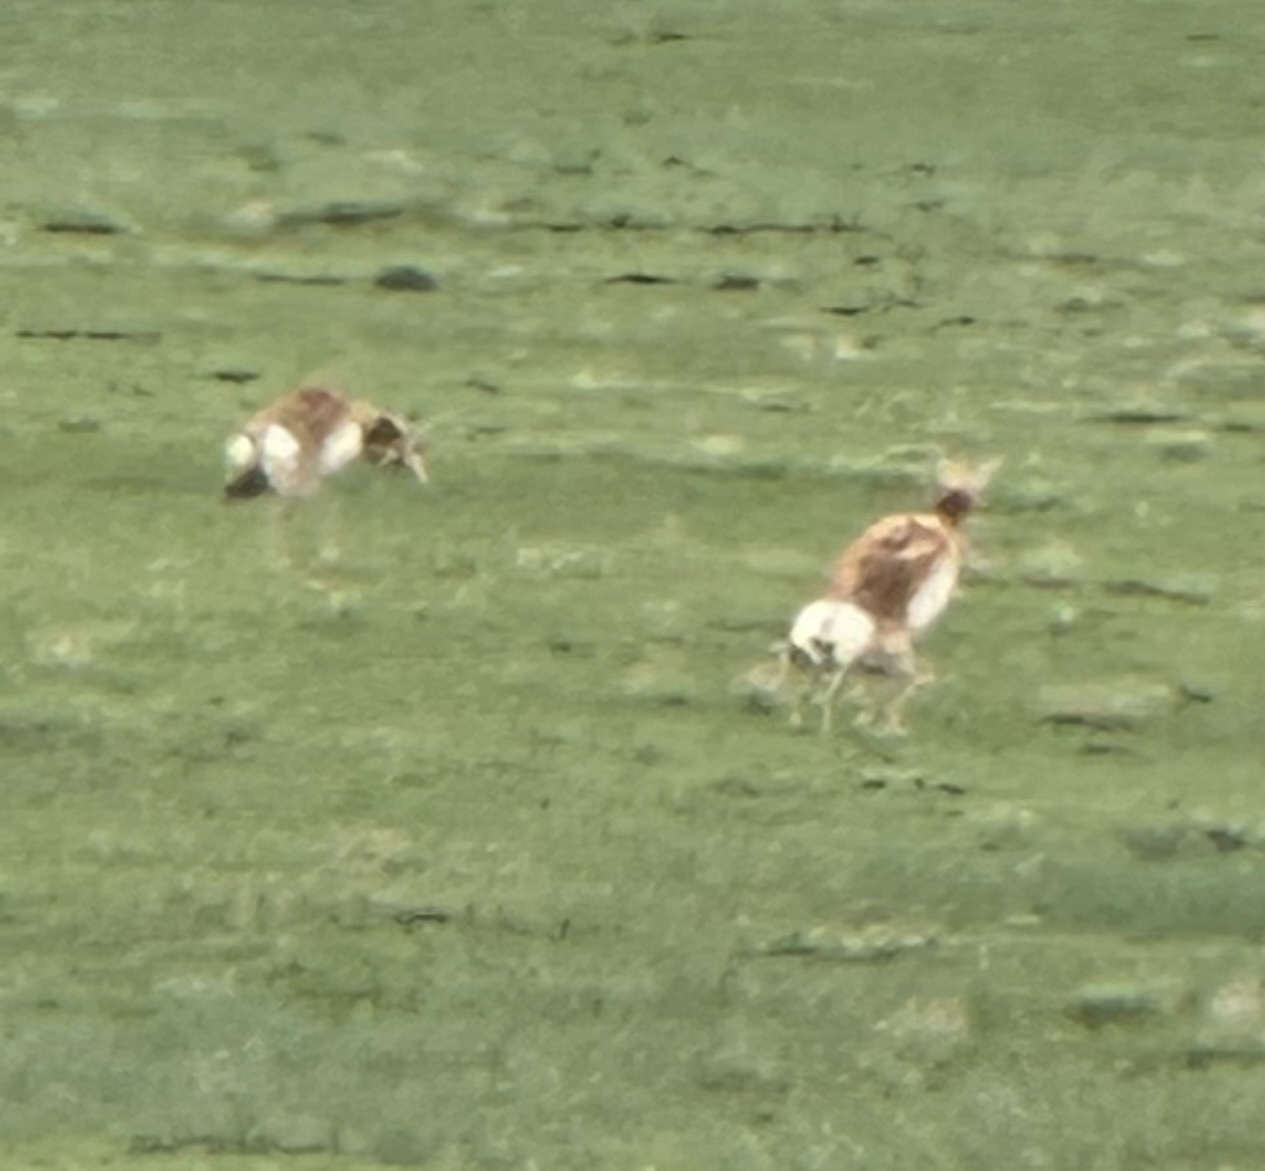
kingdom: Animalia
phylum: Chordata
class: Mammalia
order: Artiodactyla
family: Antilocapridae
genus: Antilocapra
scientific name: Antilocapra americana
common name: Pronghorn
